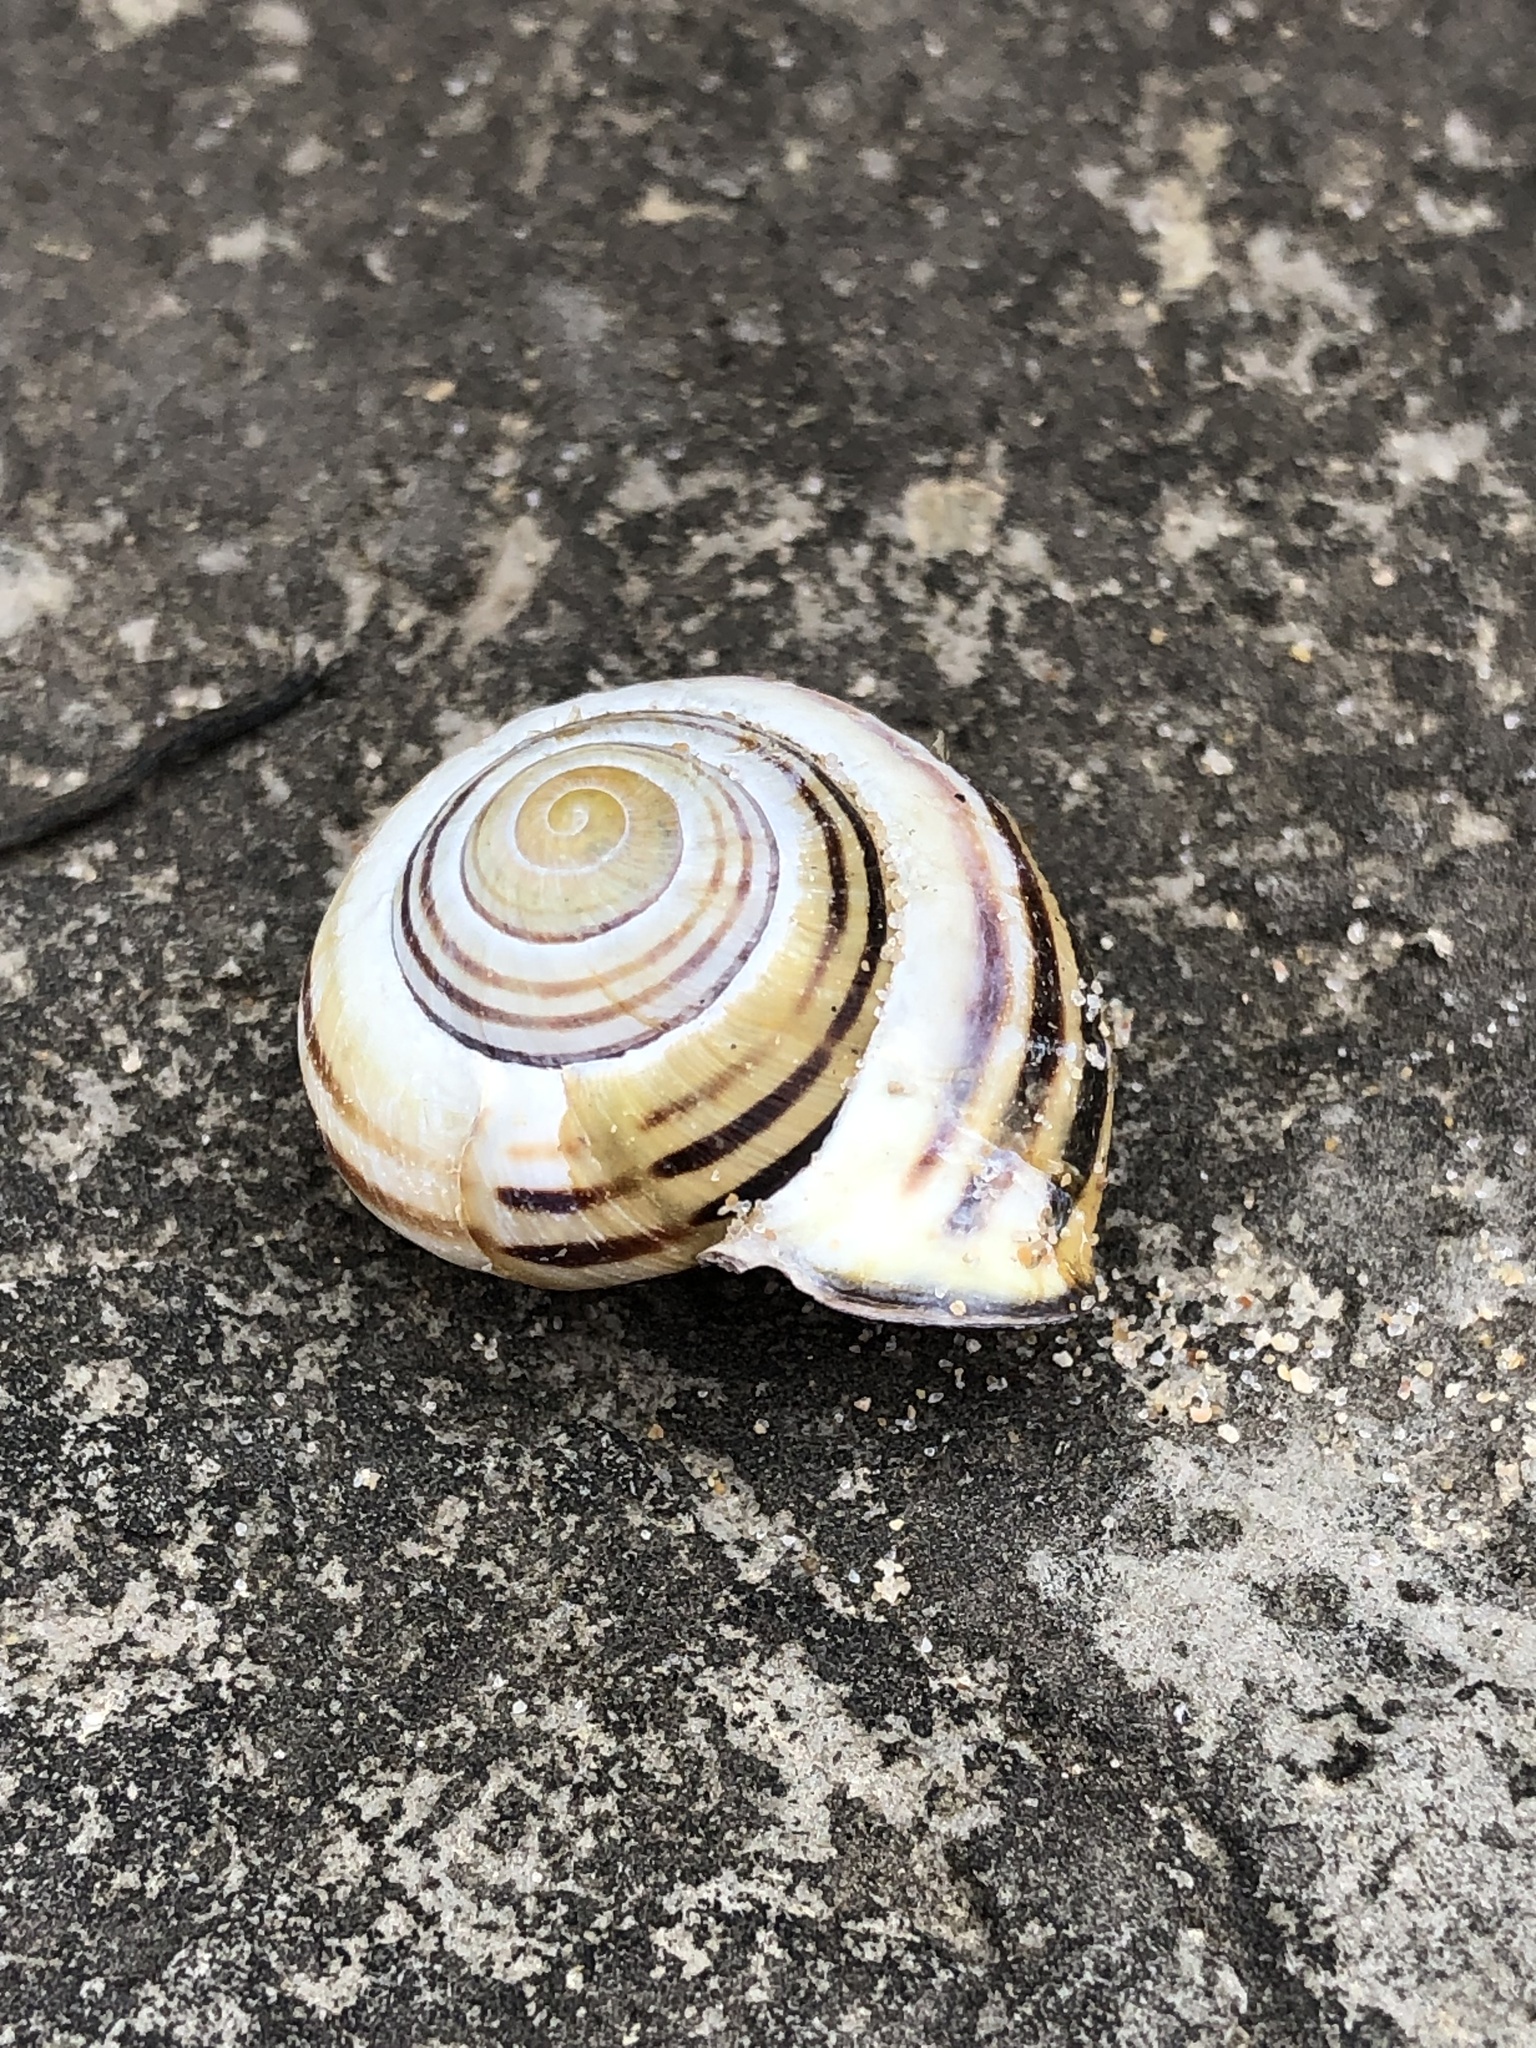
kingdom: Animalia
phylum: Mollusca
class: Gastropoda
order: Stylommatophora
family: Helicidae
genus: Cepaea
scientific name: Cepaea nemoralis
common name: Grovesnail
